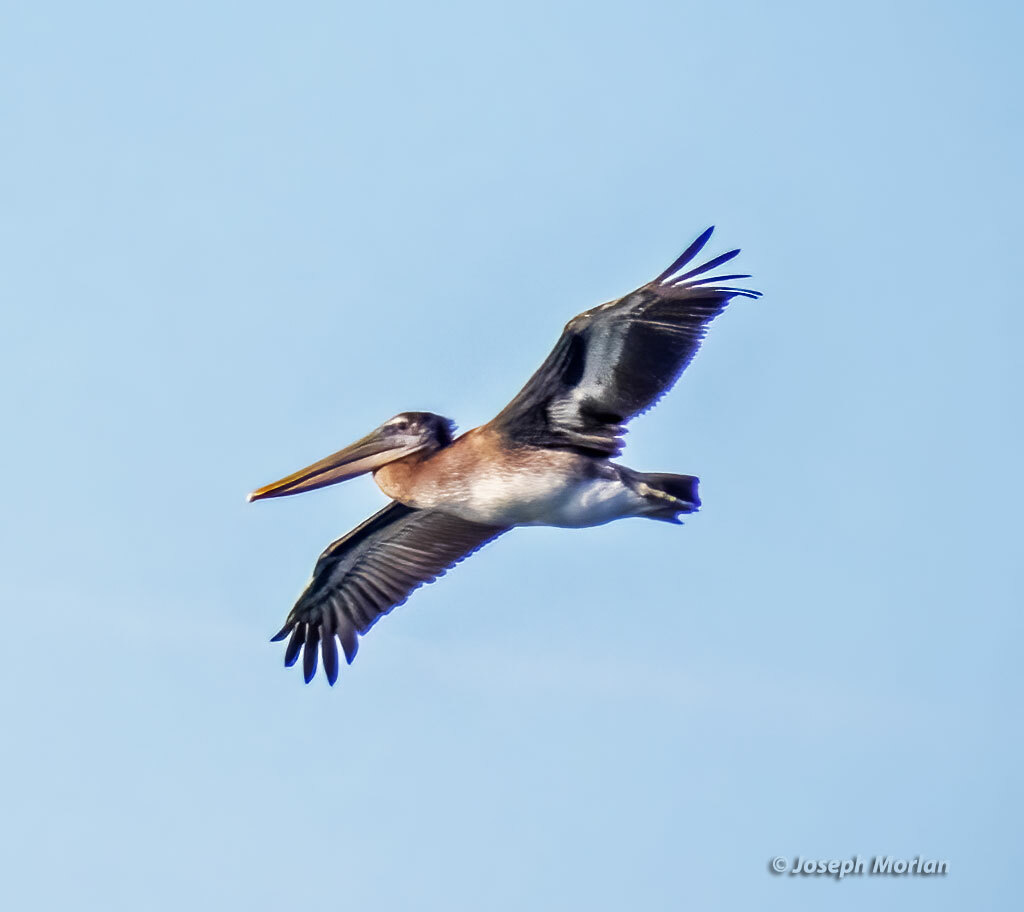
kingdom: Animalia
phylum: Chordata
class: Aves
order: Pelecaniformes
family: Pelecanidae
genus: Pelecanus
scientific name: Pelecanus occidentalis
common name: Brown pelican
